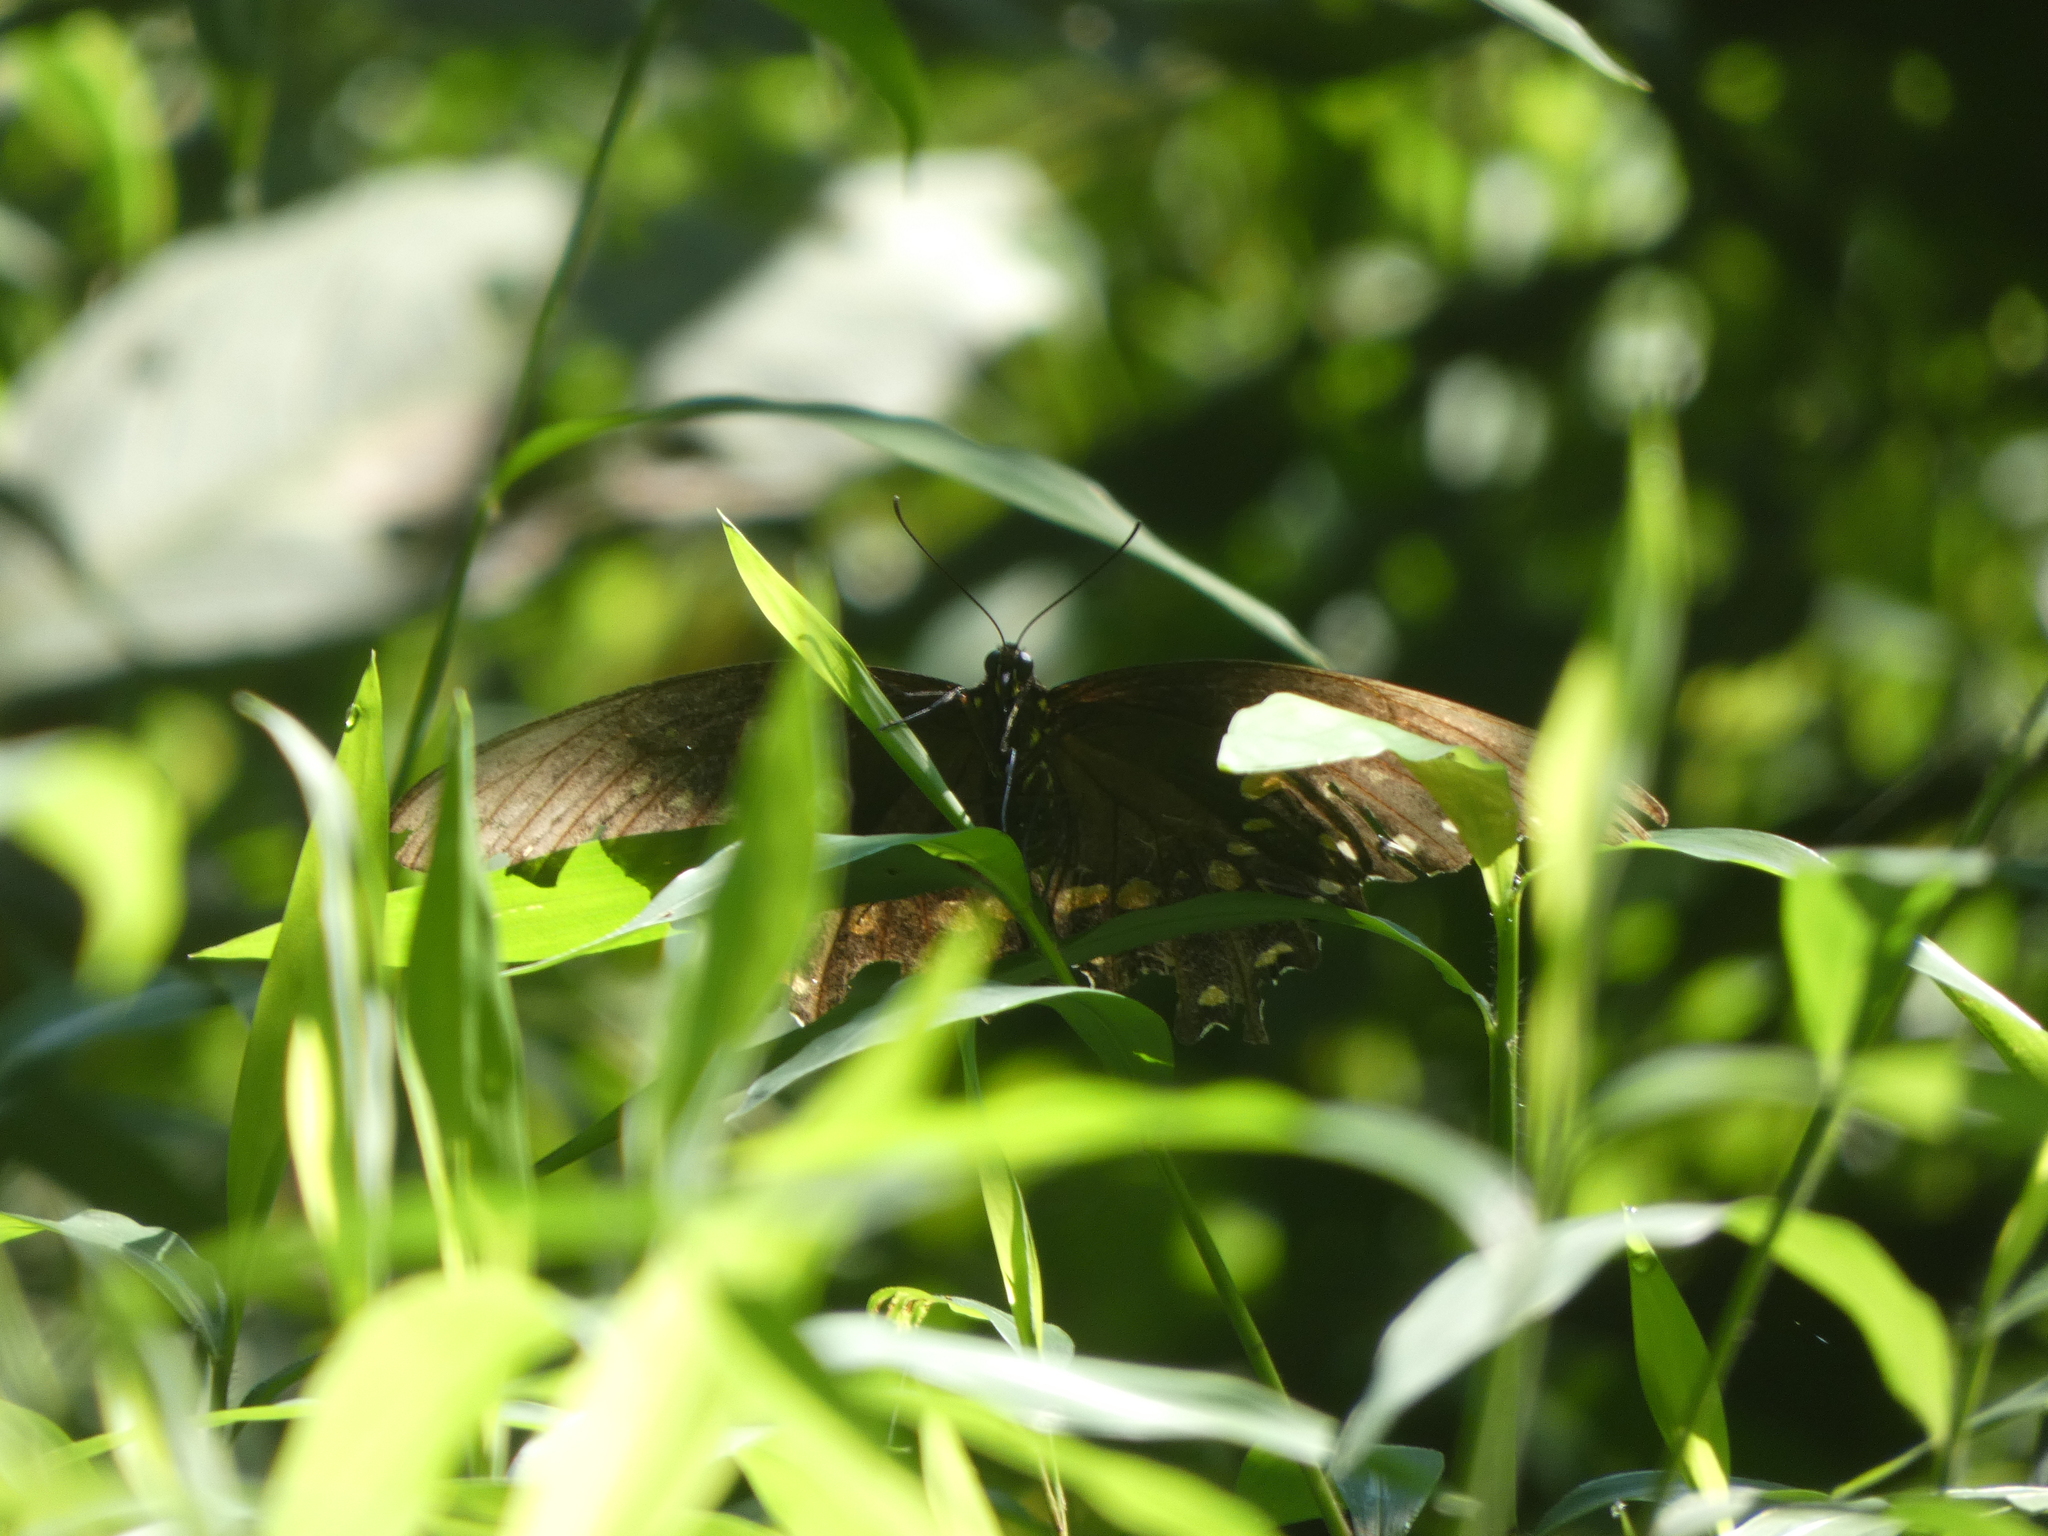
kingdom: Animalia
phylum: Arthropoda
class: Insecta
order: Lepidoptera
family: Papilionidae
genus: Papilio
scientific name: Papilio troilus
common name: Spicebush swallowtail
